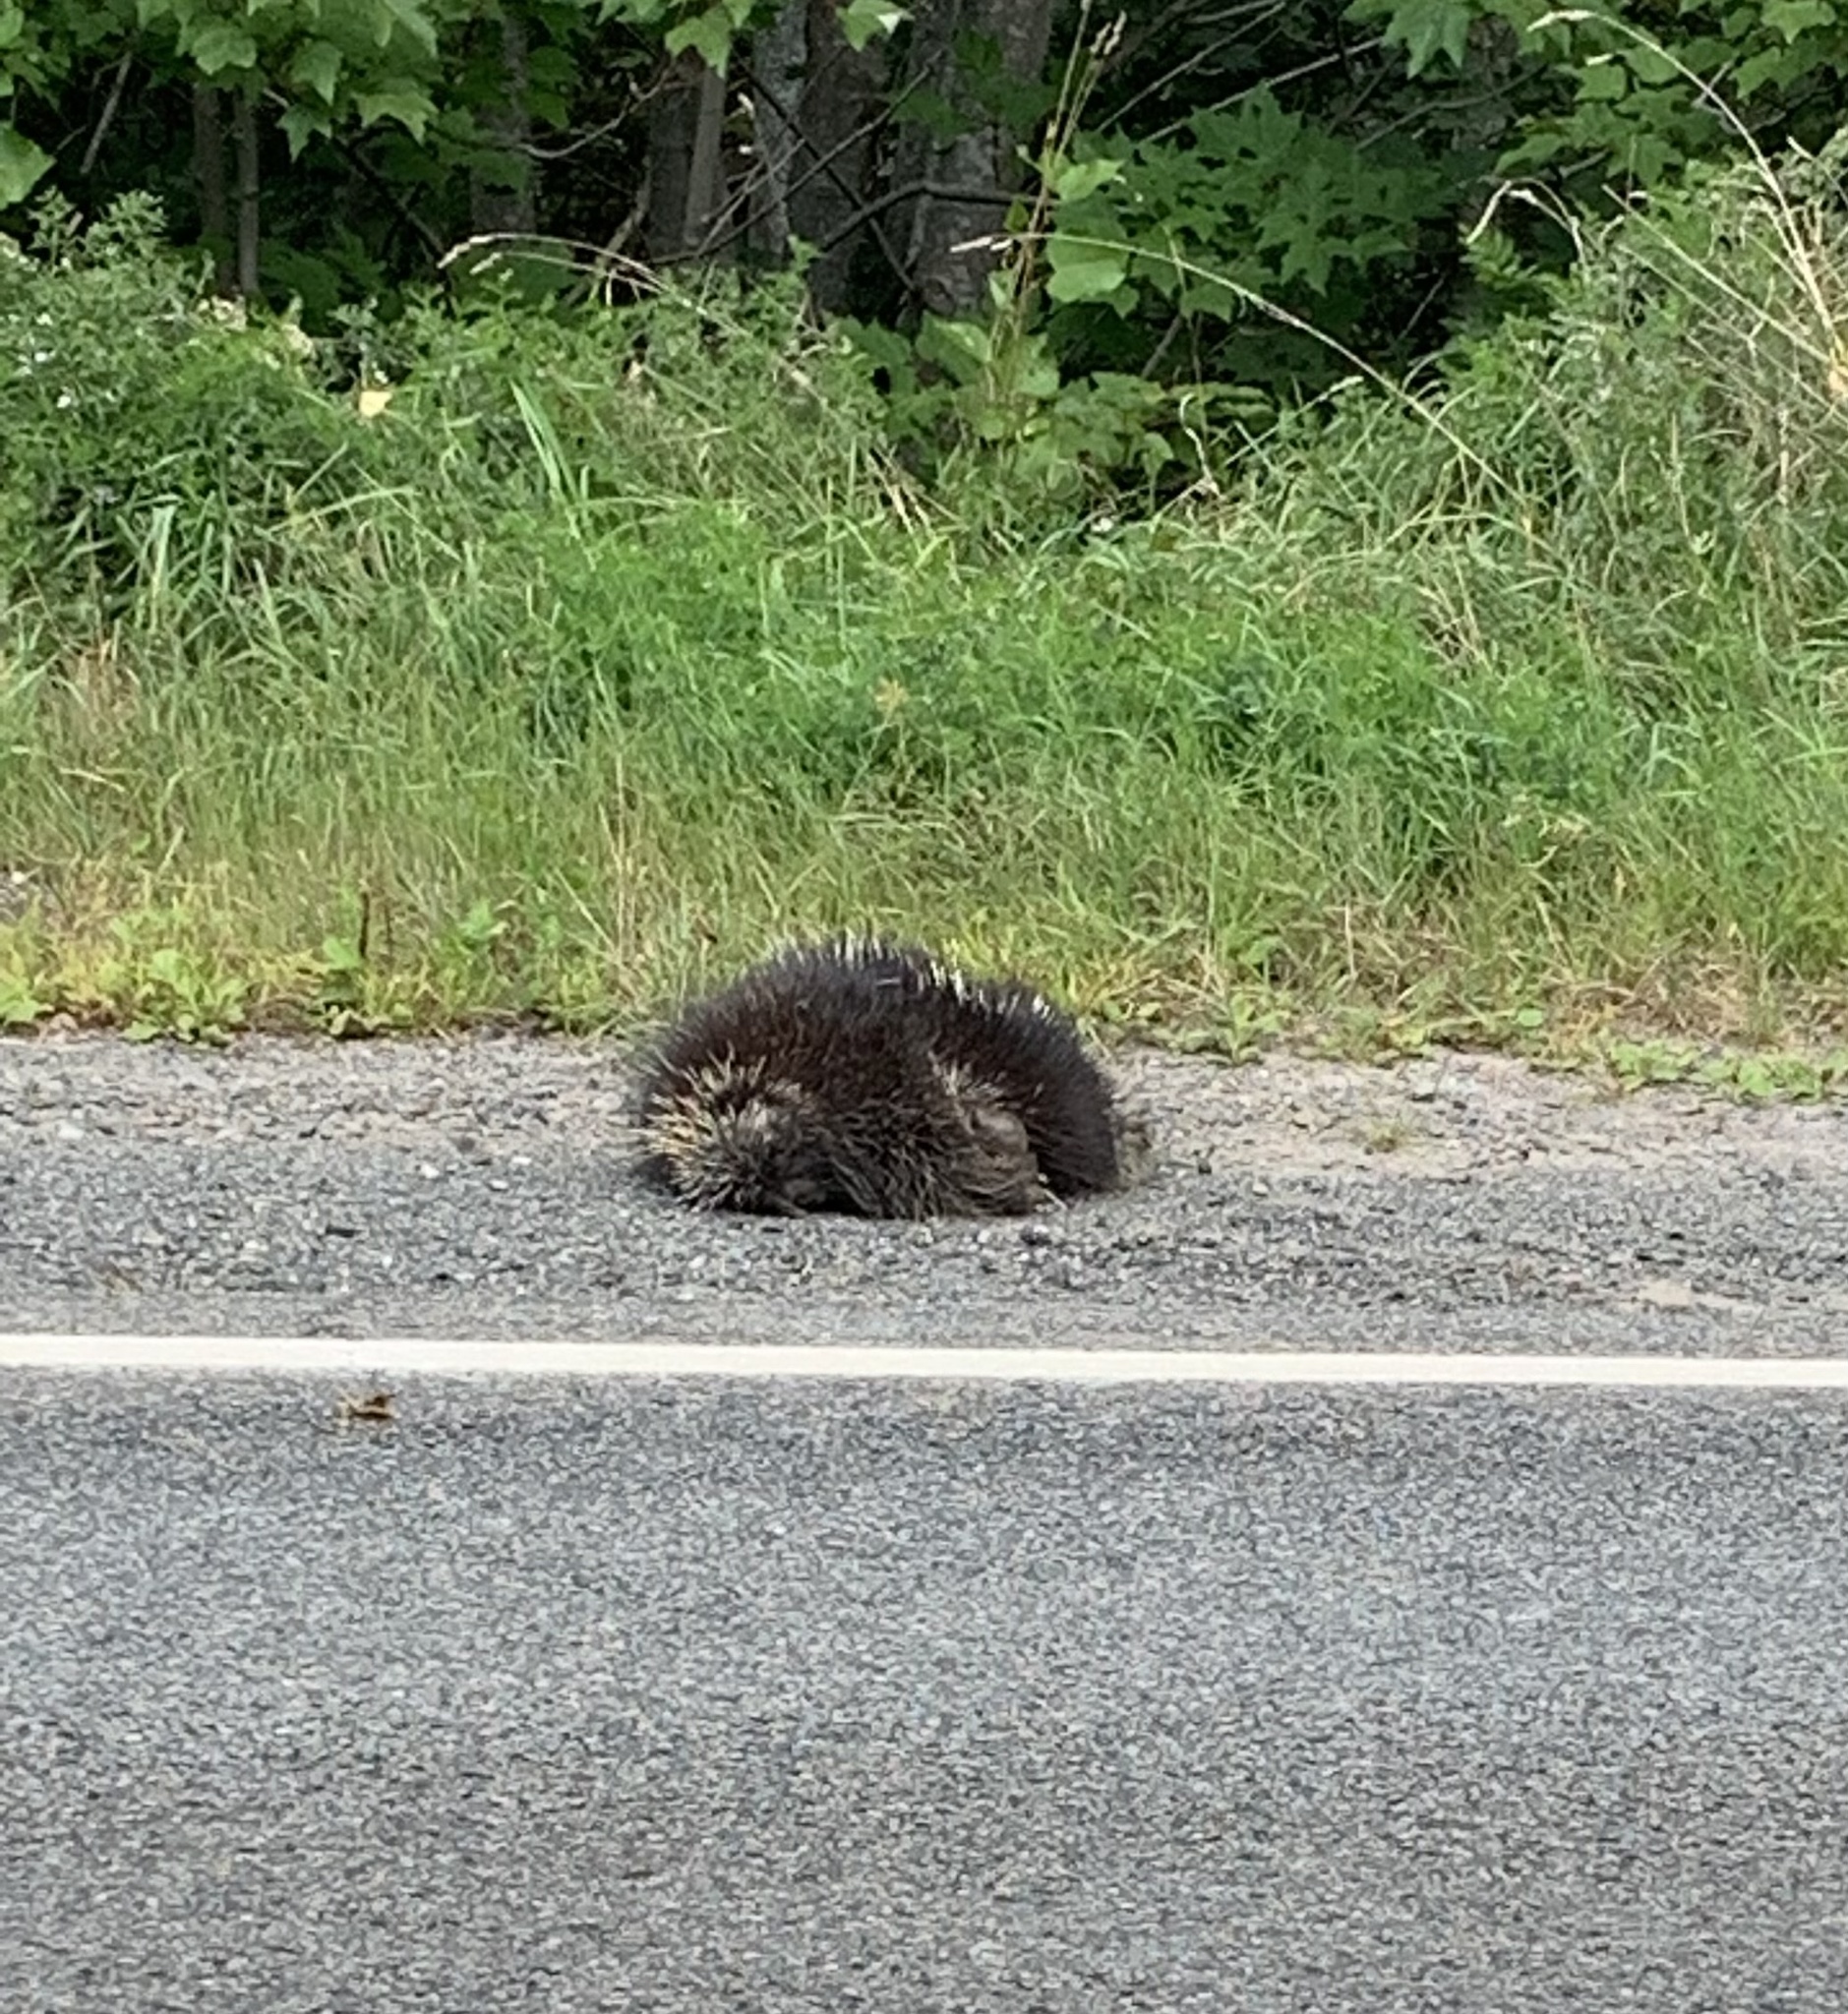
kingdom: Animalia
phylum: Chordata
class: Mammalia
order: Rodentia
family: Erethizontidae
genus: Erethizon
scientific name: Erethizon dorsatus
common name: North american porcupine
